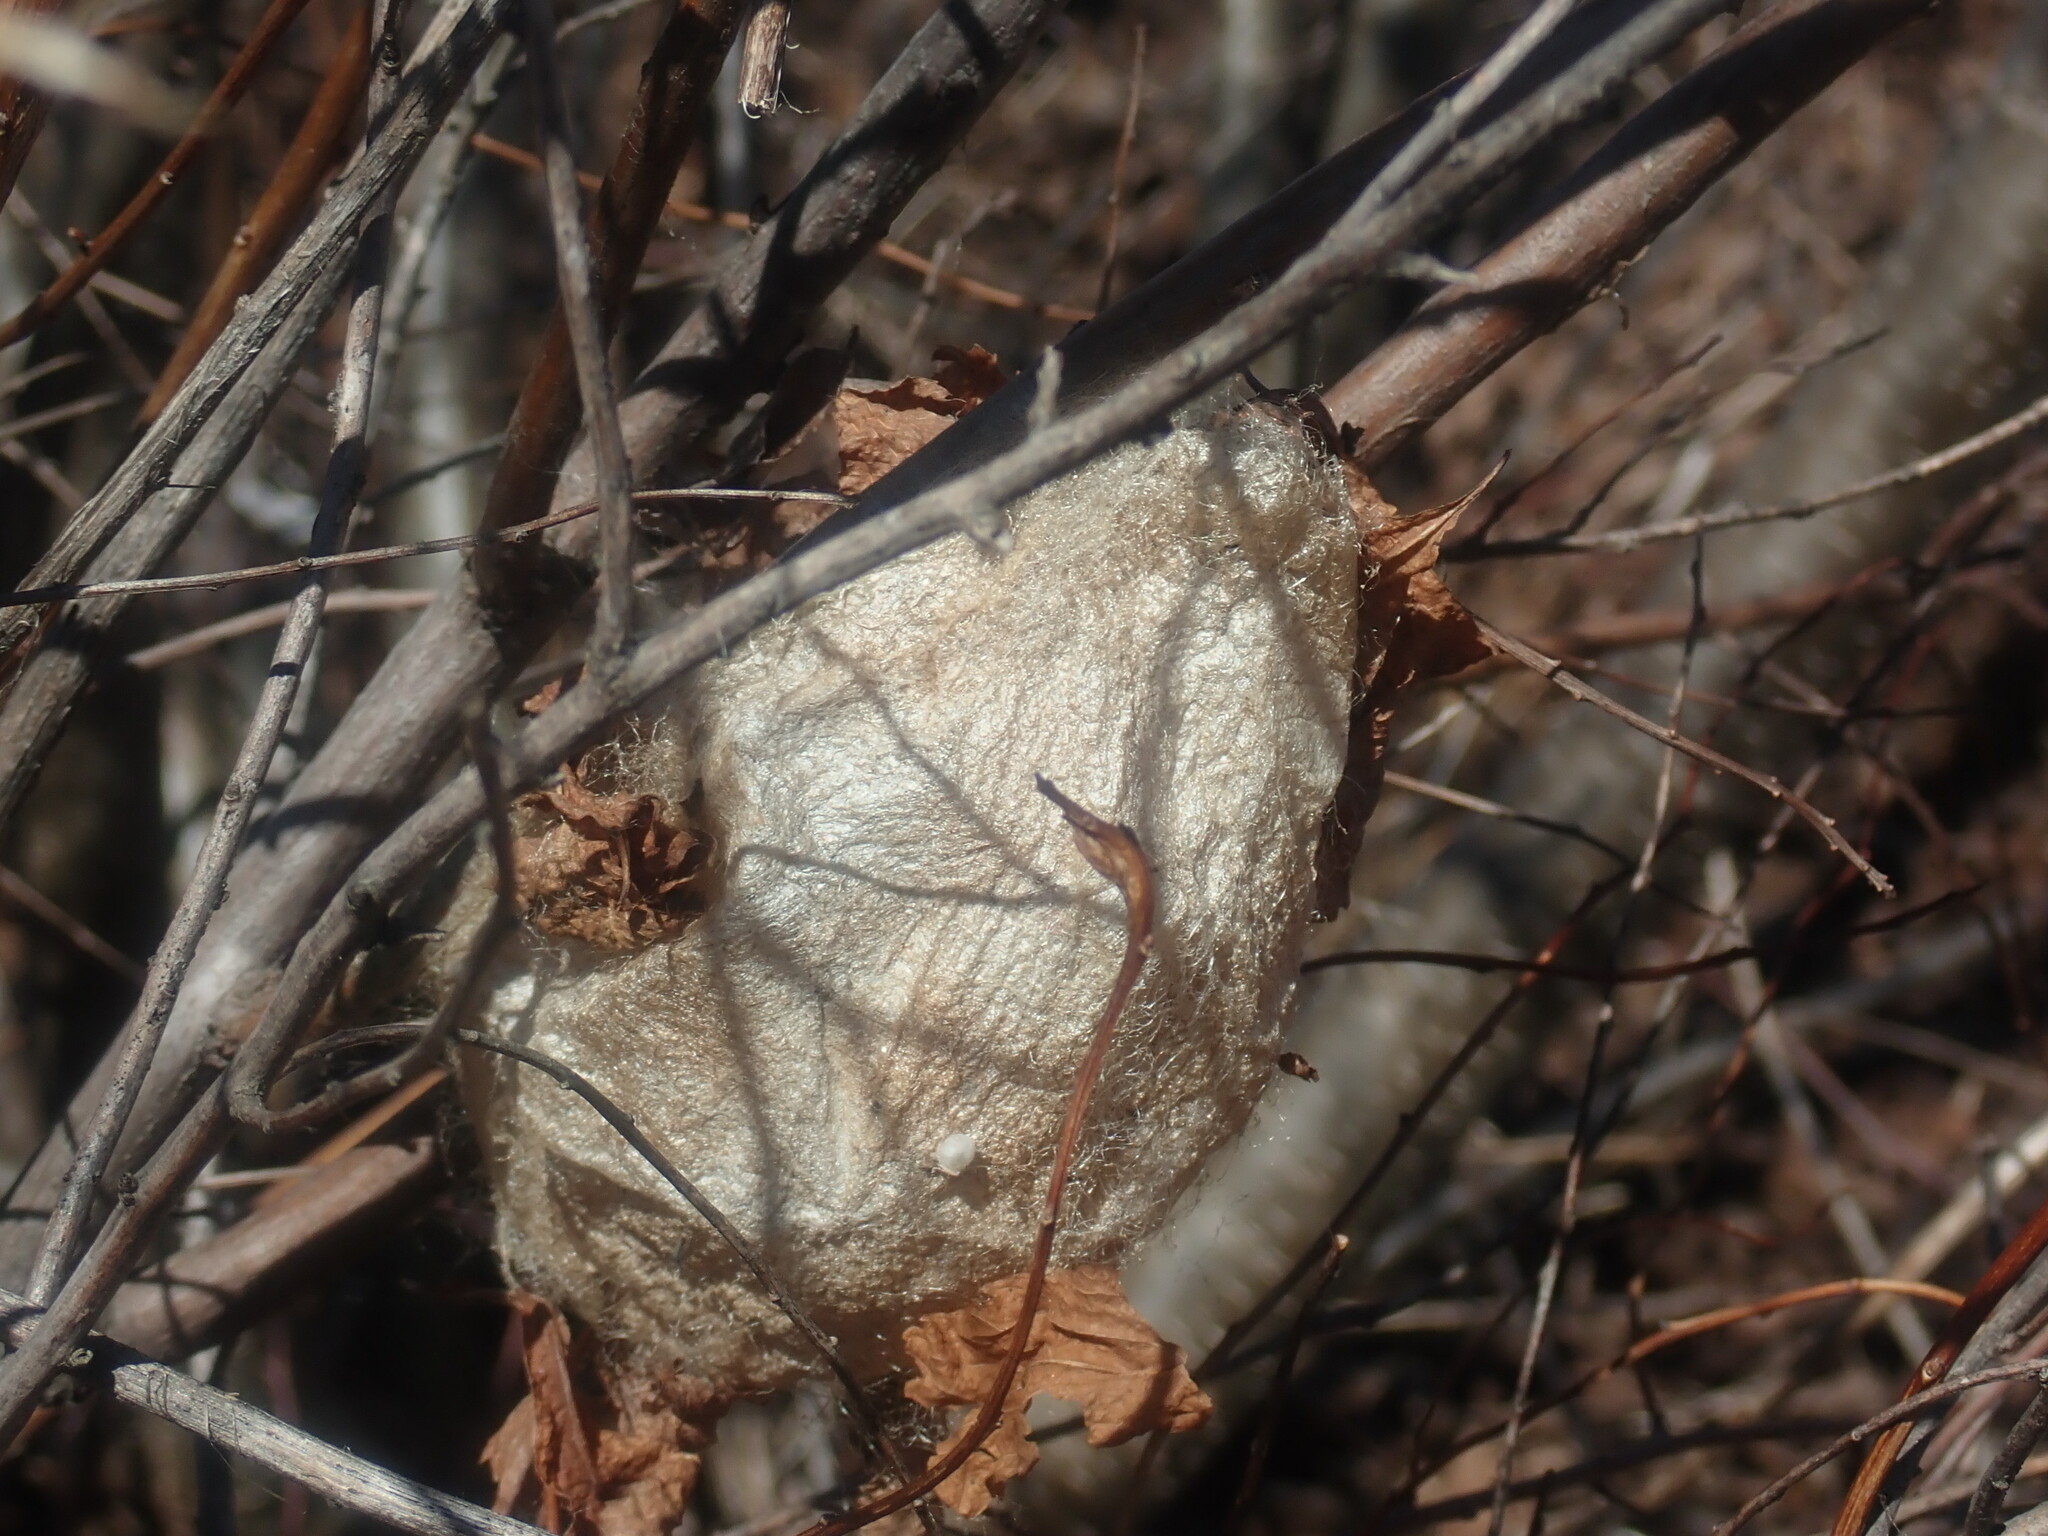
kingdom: Animalia
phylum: Arthropoda
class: Insecta
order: Lepidoptera
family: Saturniidae
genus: Hyalophora
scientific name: Hyalophora cecropia
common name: Cecropia silkmoth
